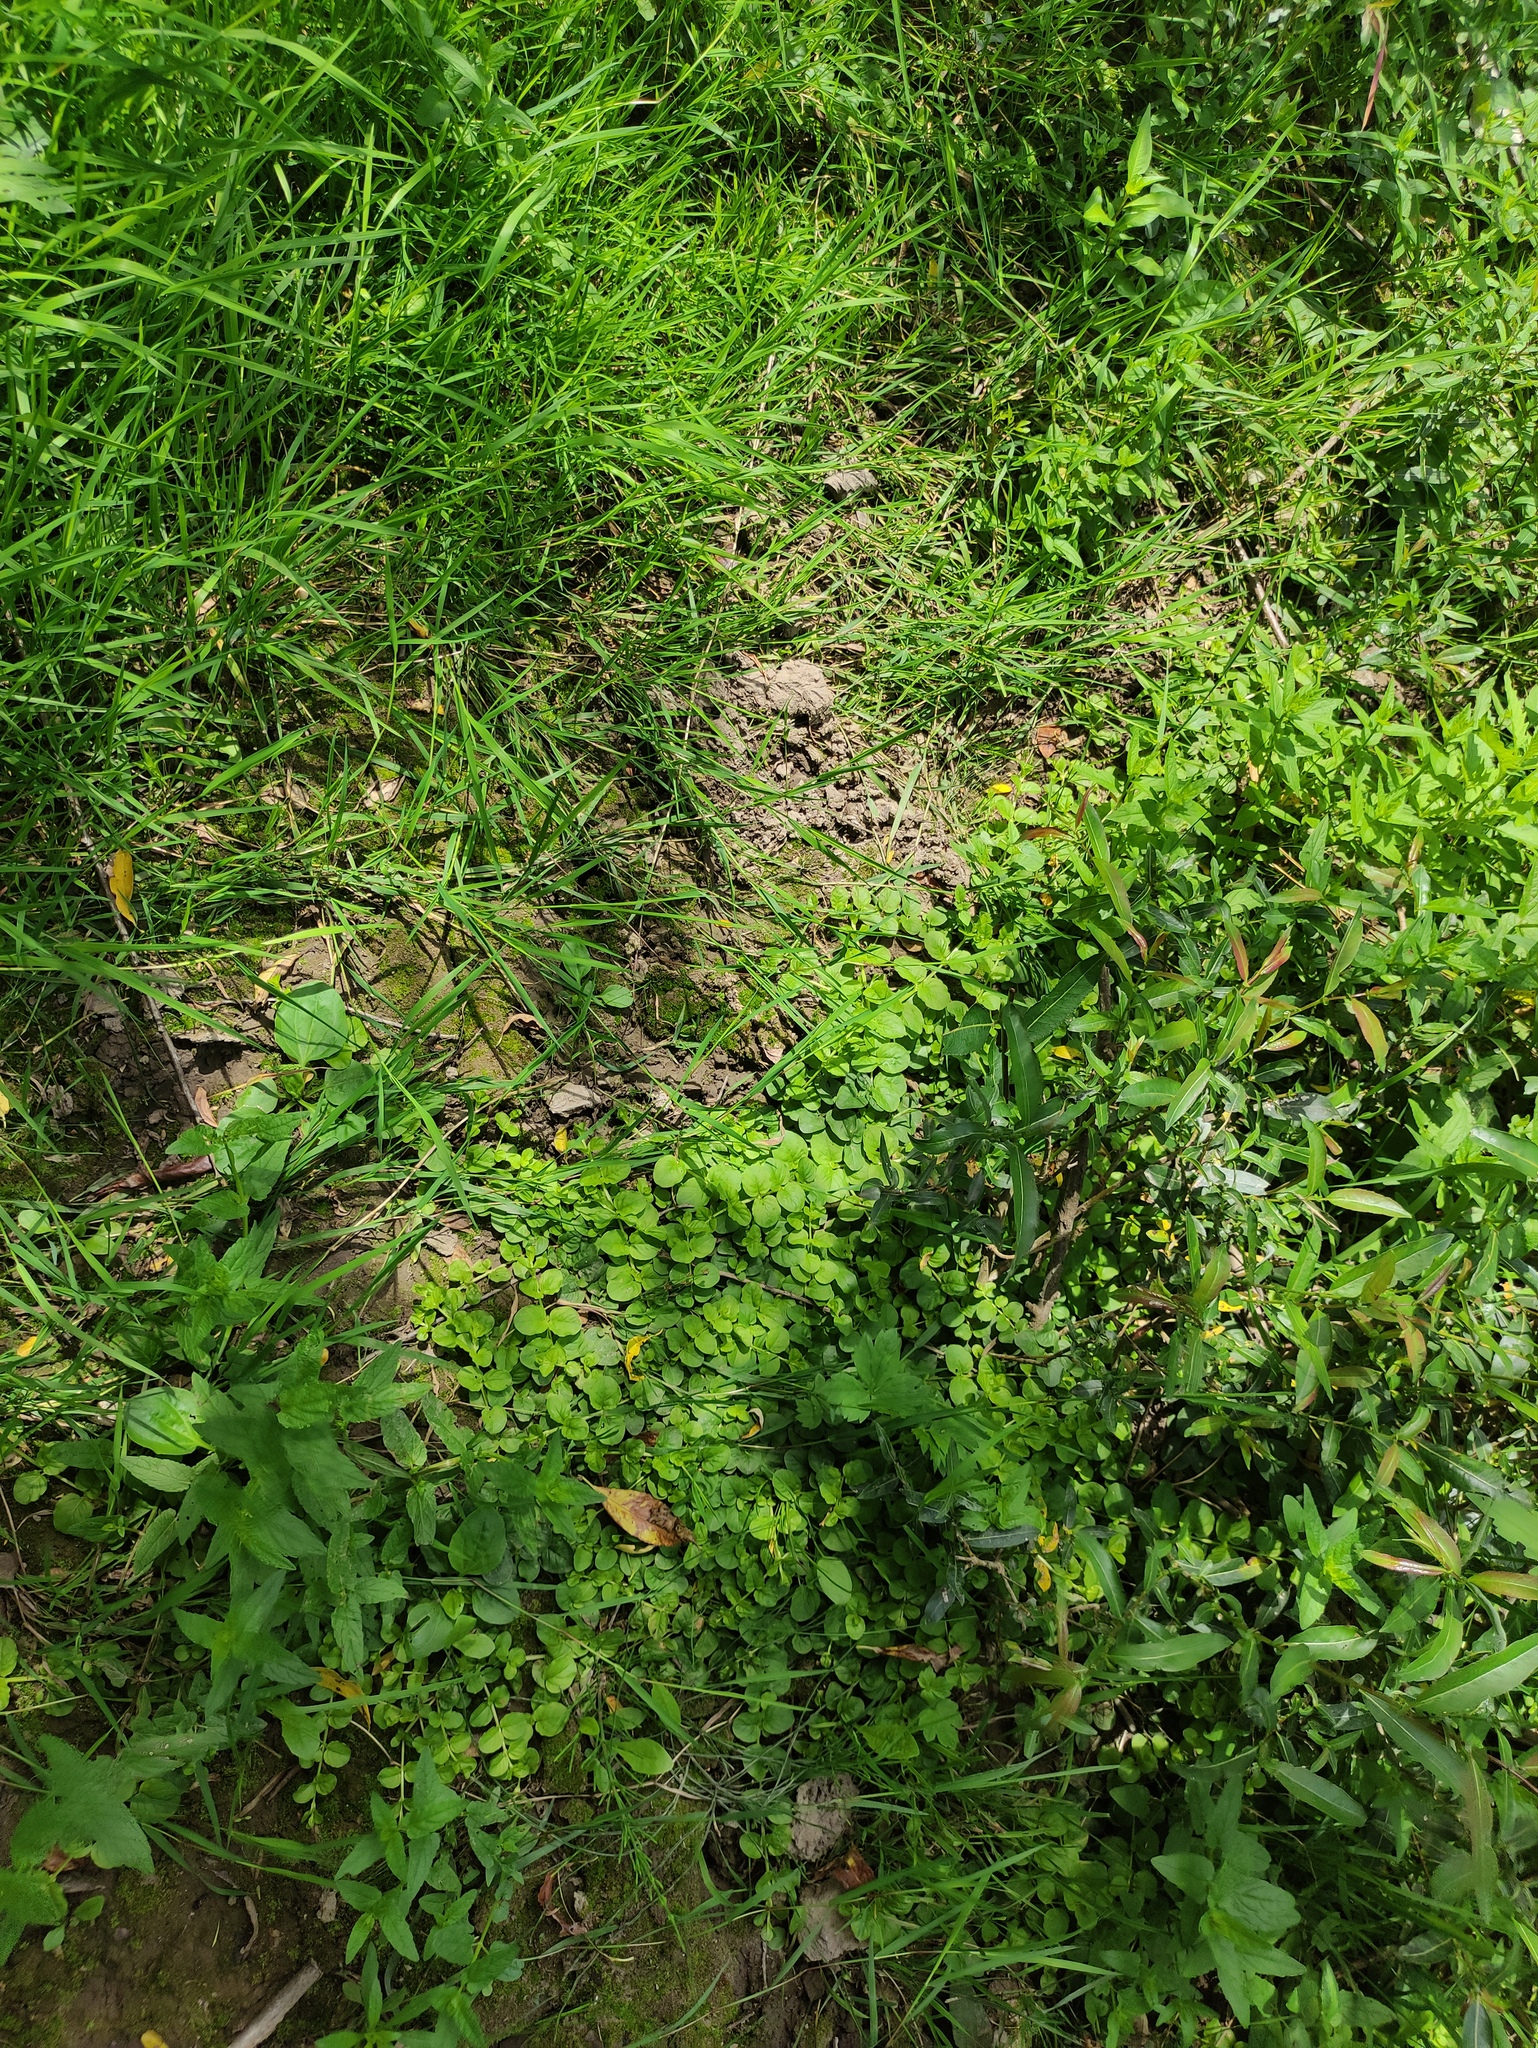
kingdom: Plantae
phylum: Tracheophyta
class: Magnoliopsida
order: Ericales
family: Primulaceae
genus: Lysimachia
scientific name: Lysimachia nummularia
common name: Moneywort
